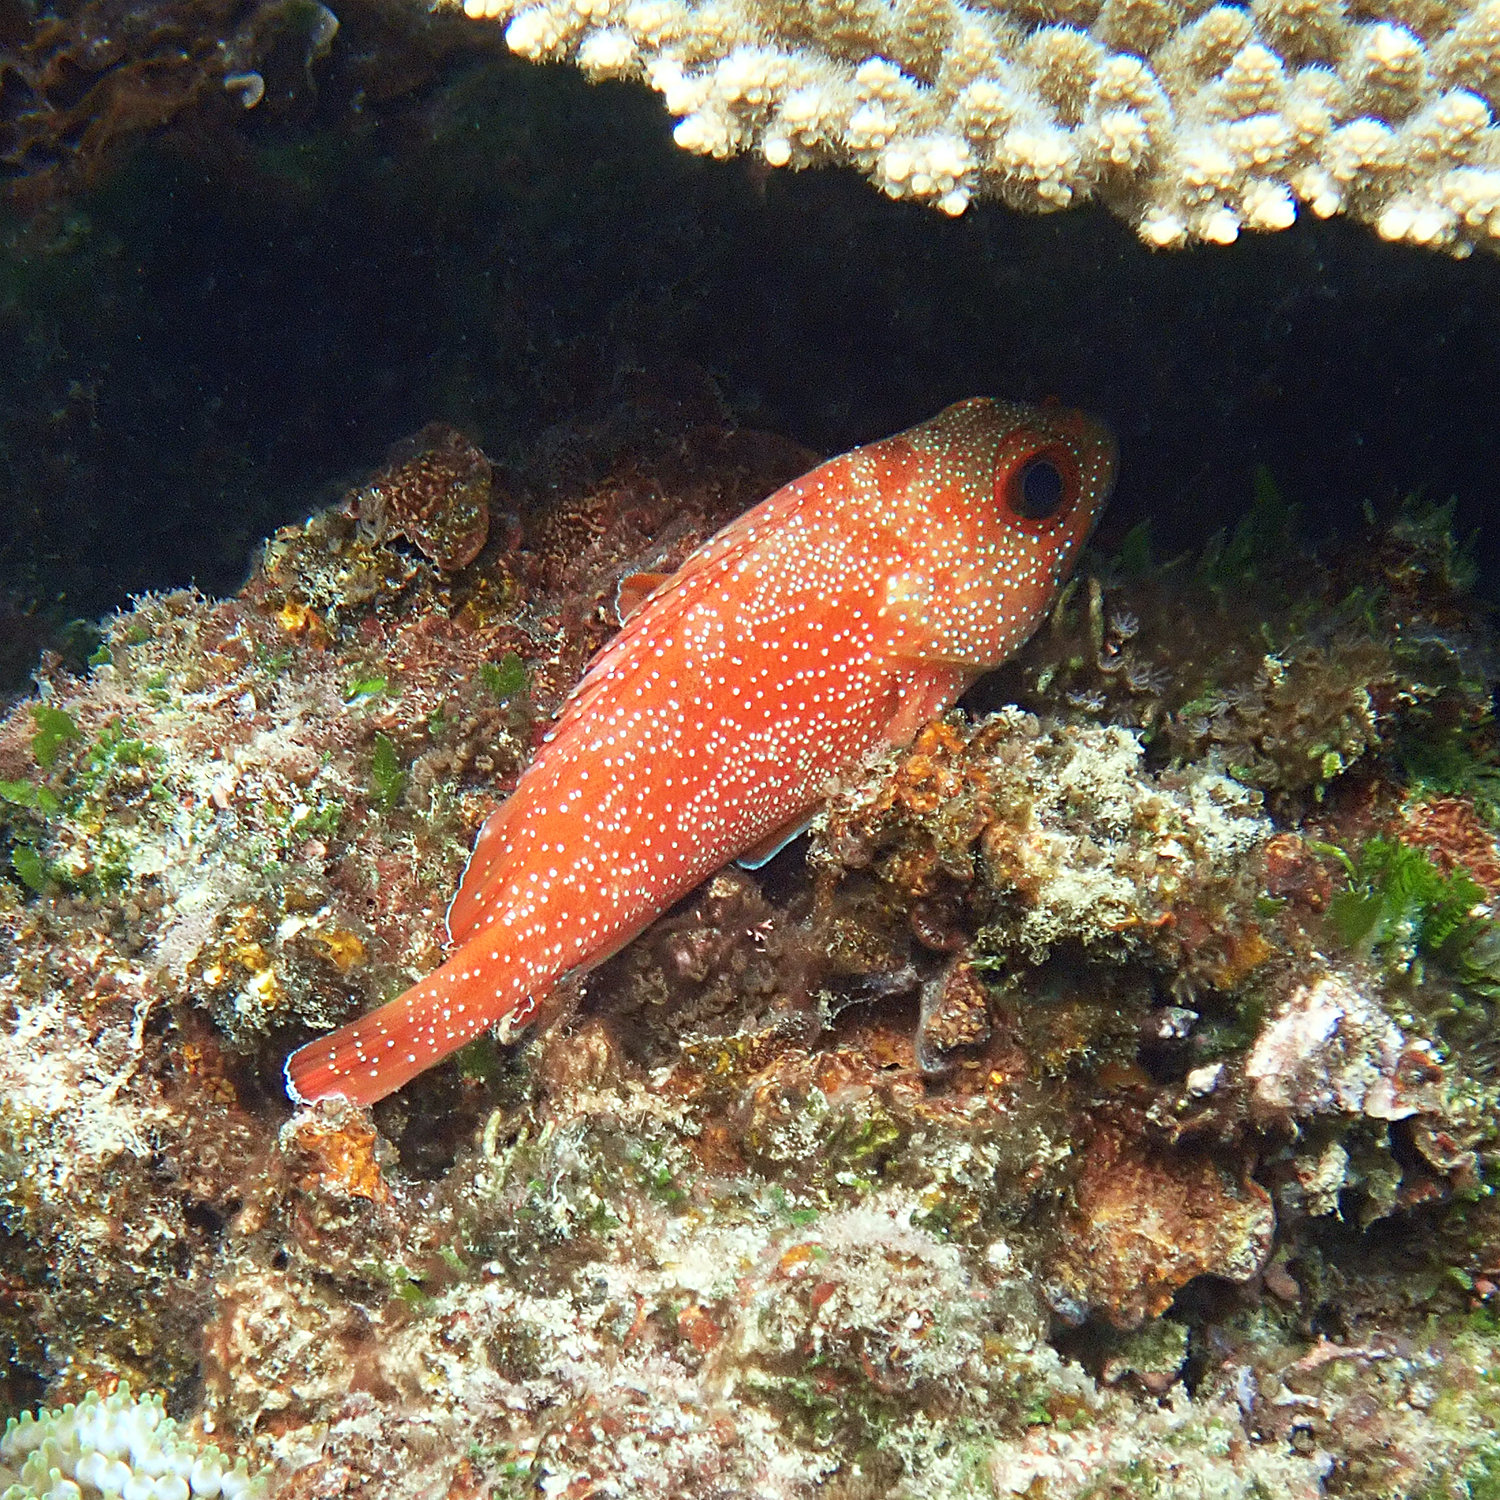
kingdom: Animalia
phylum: Chordata
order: Perciformes
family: Serranidae
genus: Trachypoma
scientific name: Trachypoma macracanthus
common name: Toadstool grouper
